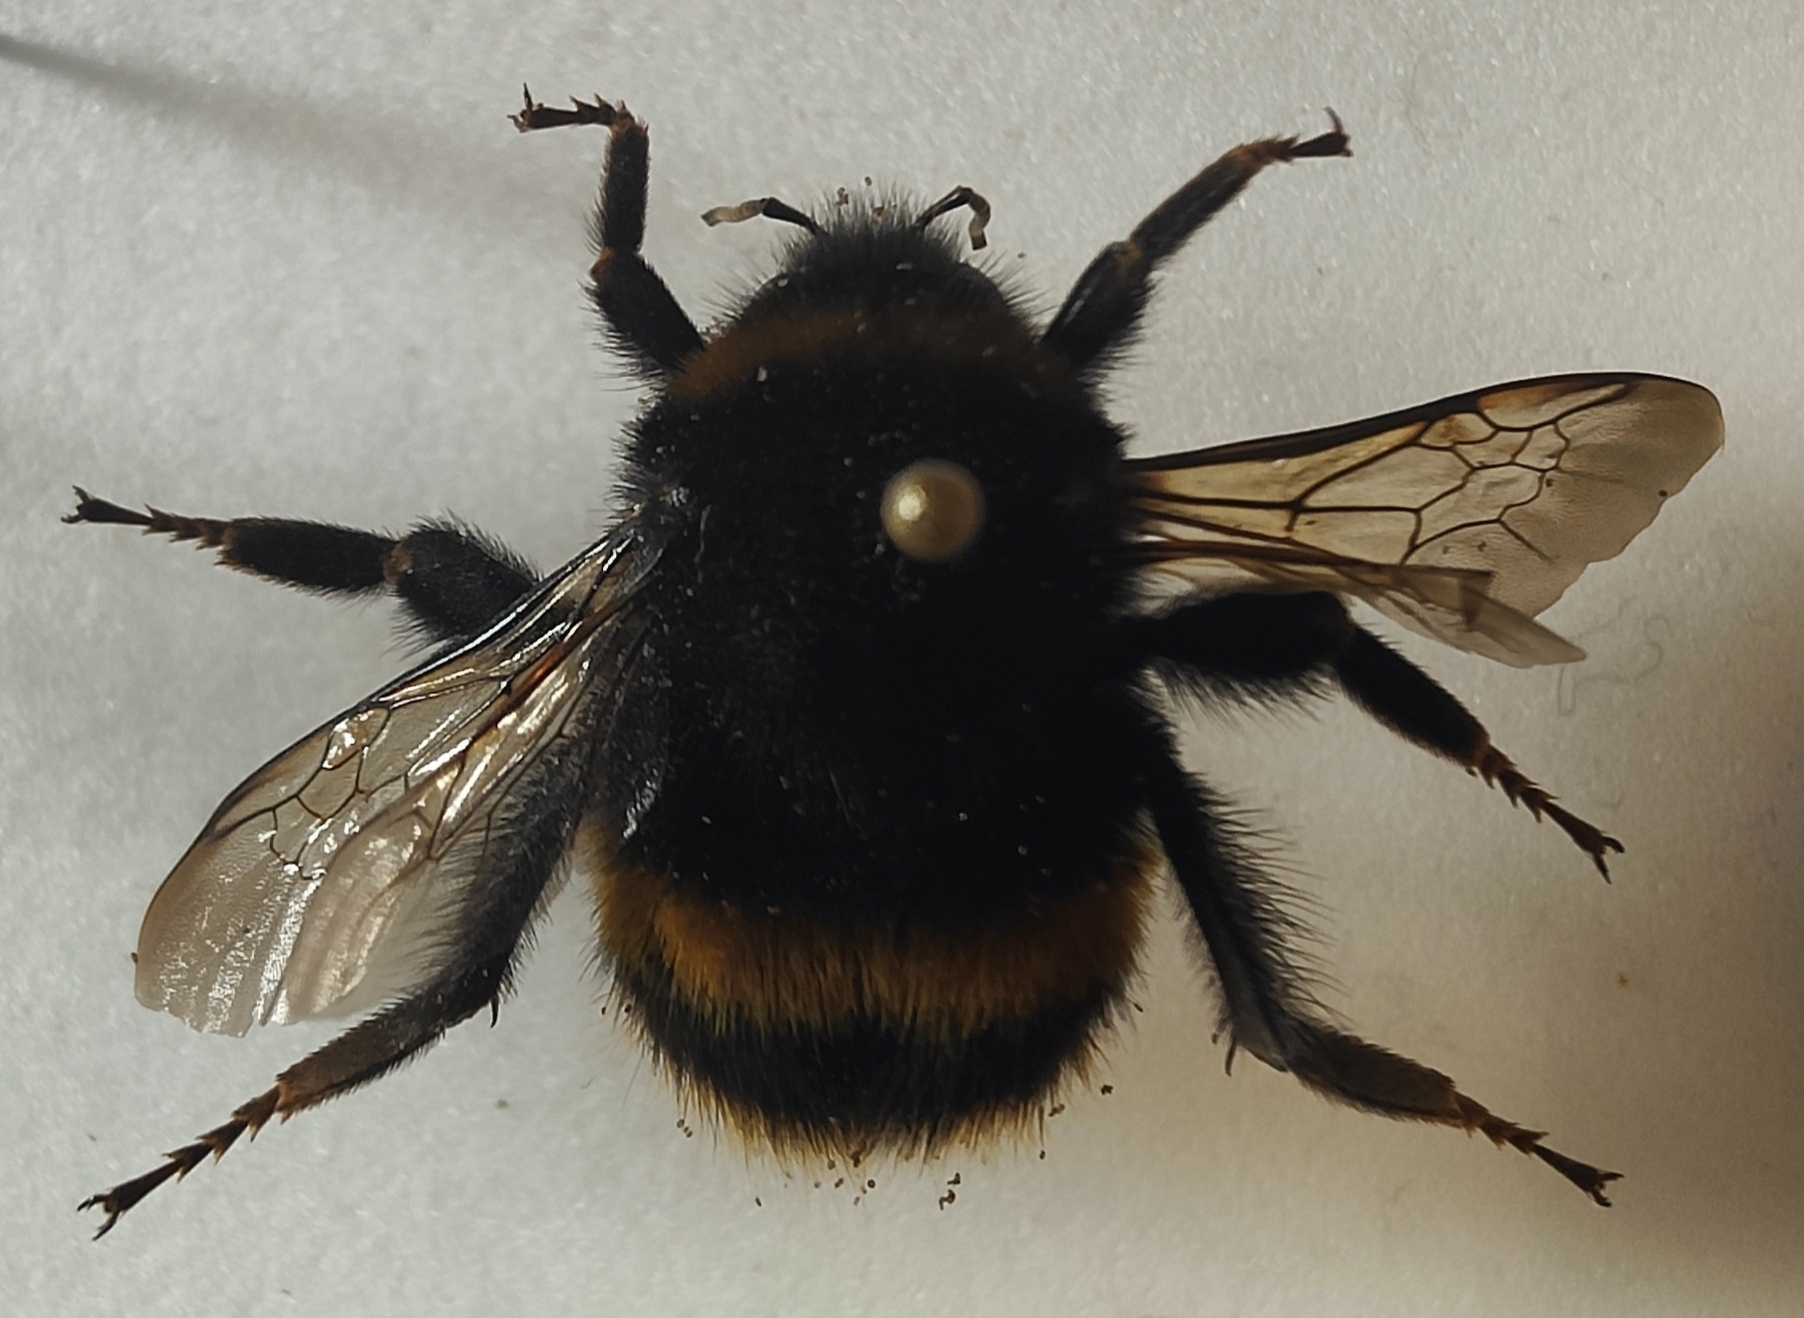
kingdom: Animalia
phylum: Arthropoda
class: Insecta
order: Hymenoptera
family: Apidae
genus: Bombus
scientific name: Bombus terrestris
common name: Buff-tailed bumblebee
